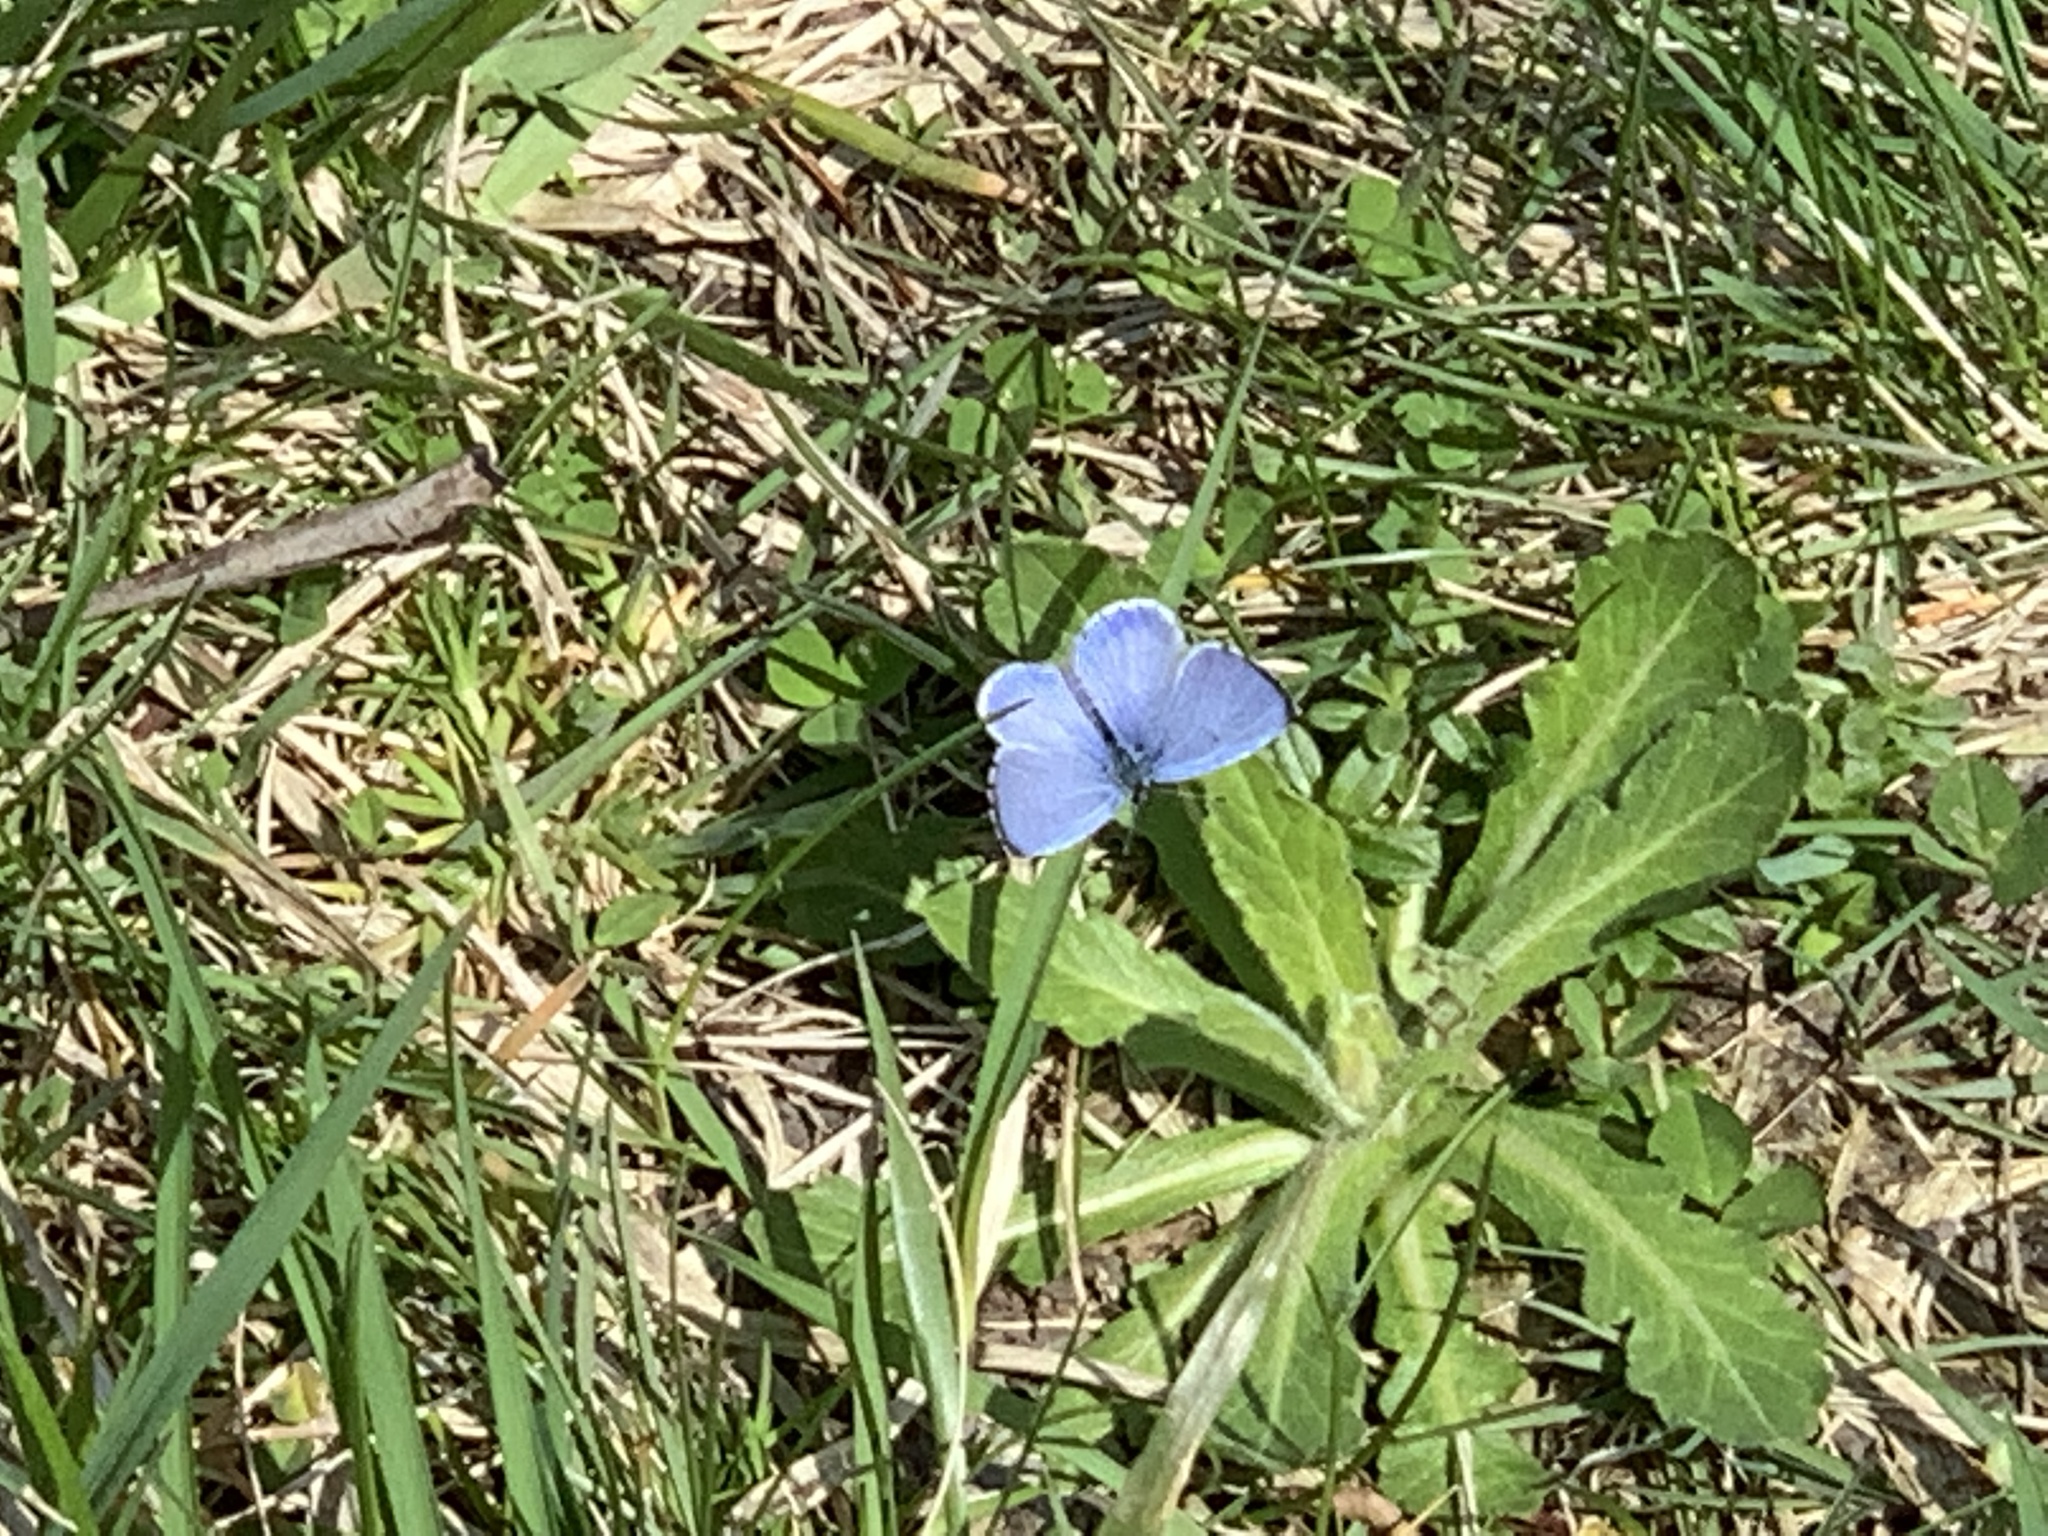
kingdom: Animalia
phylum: Arthropoda
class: Insecta
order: Lepidoptera
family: Lycaenidae
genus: Celastrina
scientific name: Celastrina ladon
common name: Spring azure
